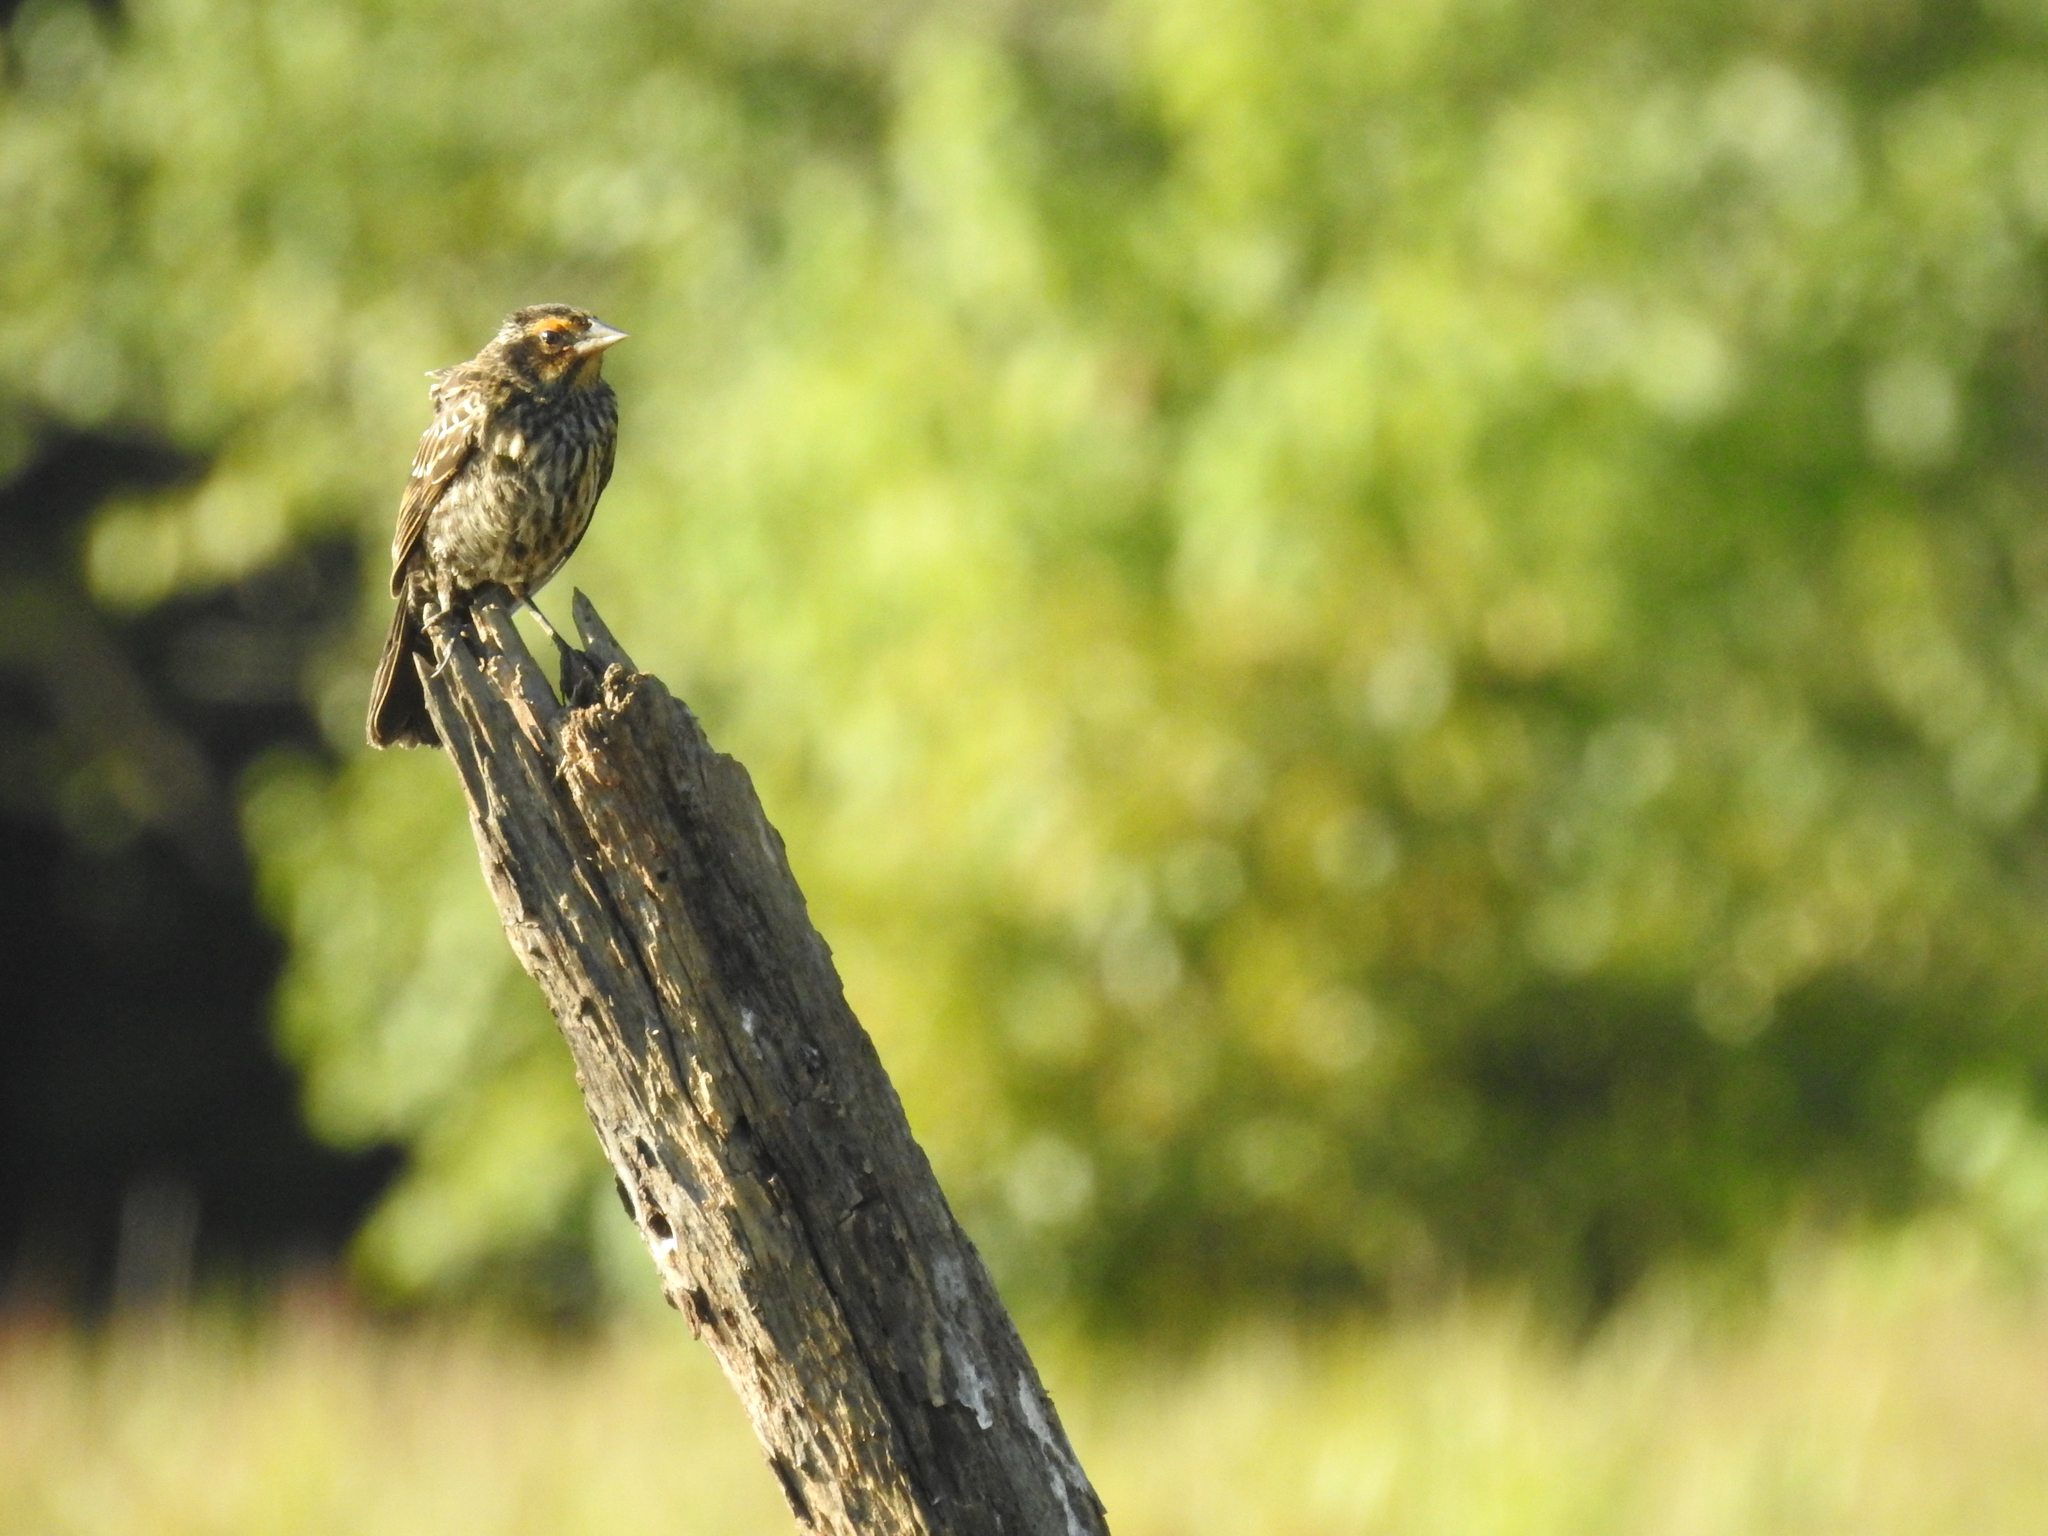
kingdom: Animalia
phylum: Chordata
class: Aves
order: Passeriformes
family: Icteridae
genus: Agelaius
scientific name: Agelaius phoeniceus
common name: Red-winged blackbird
